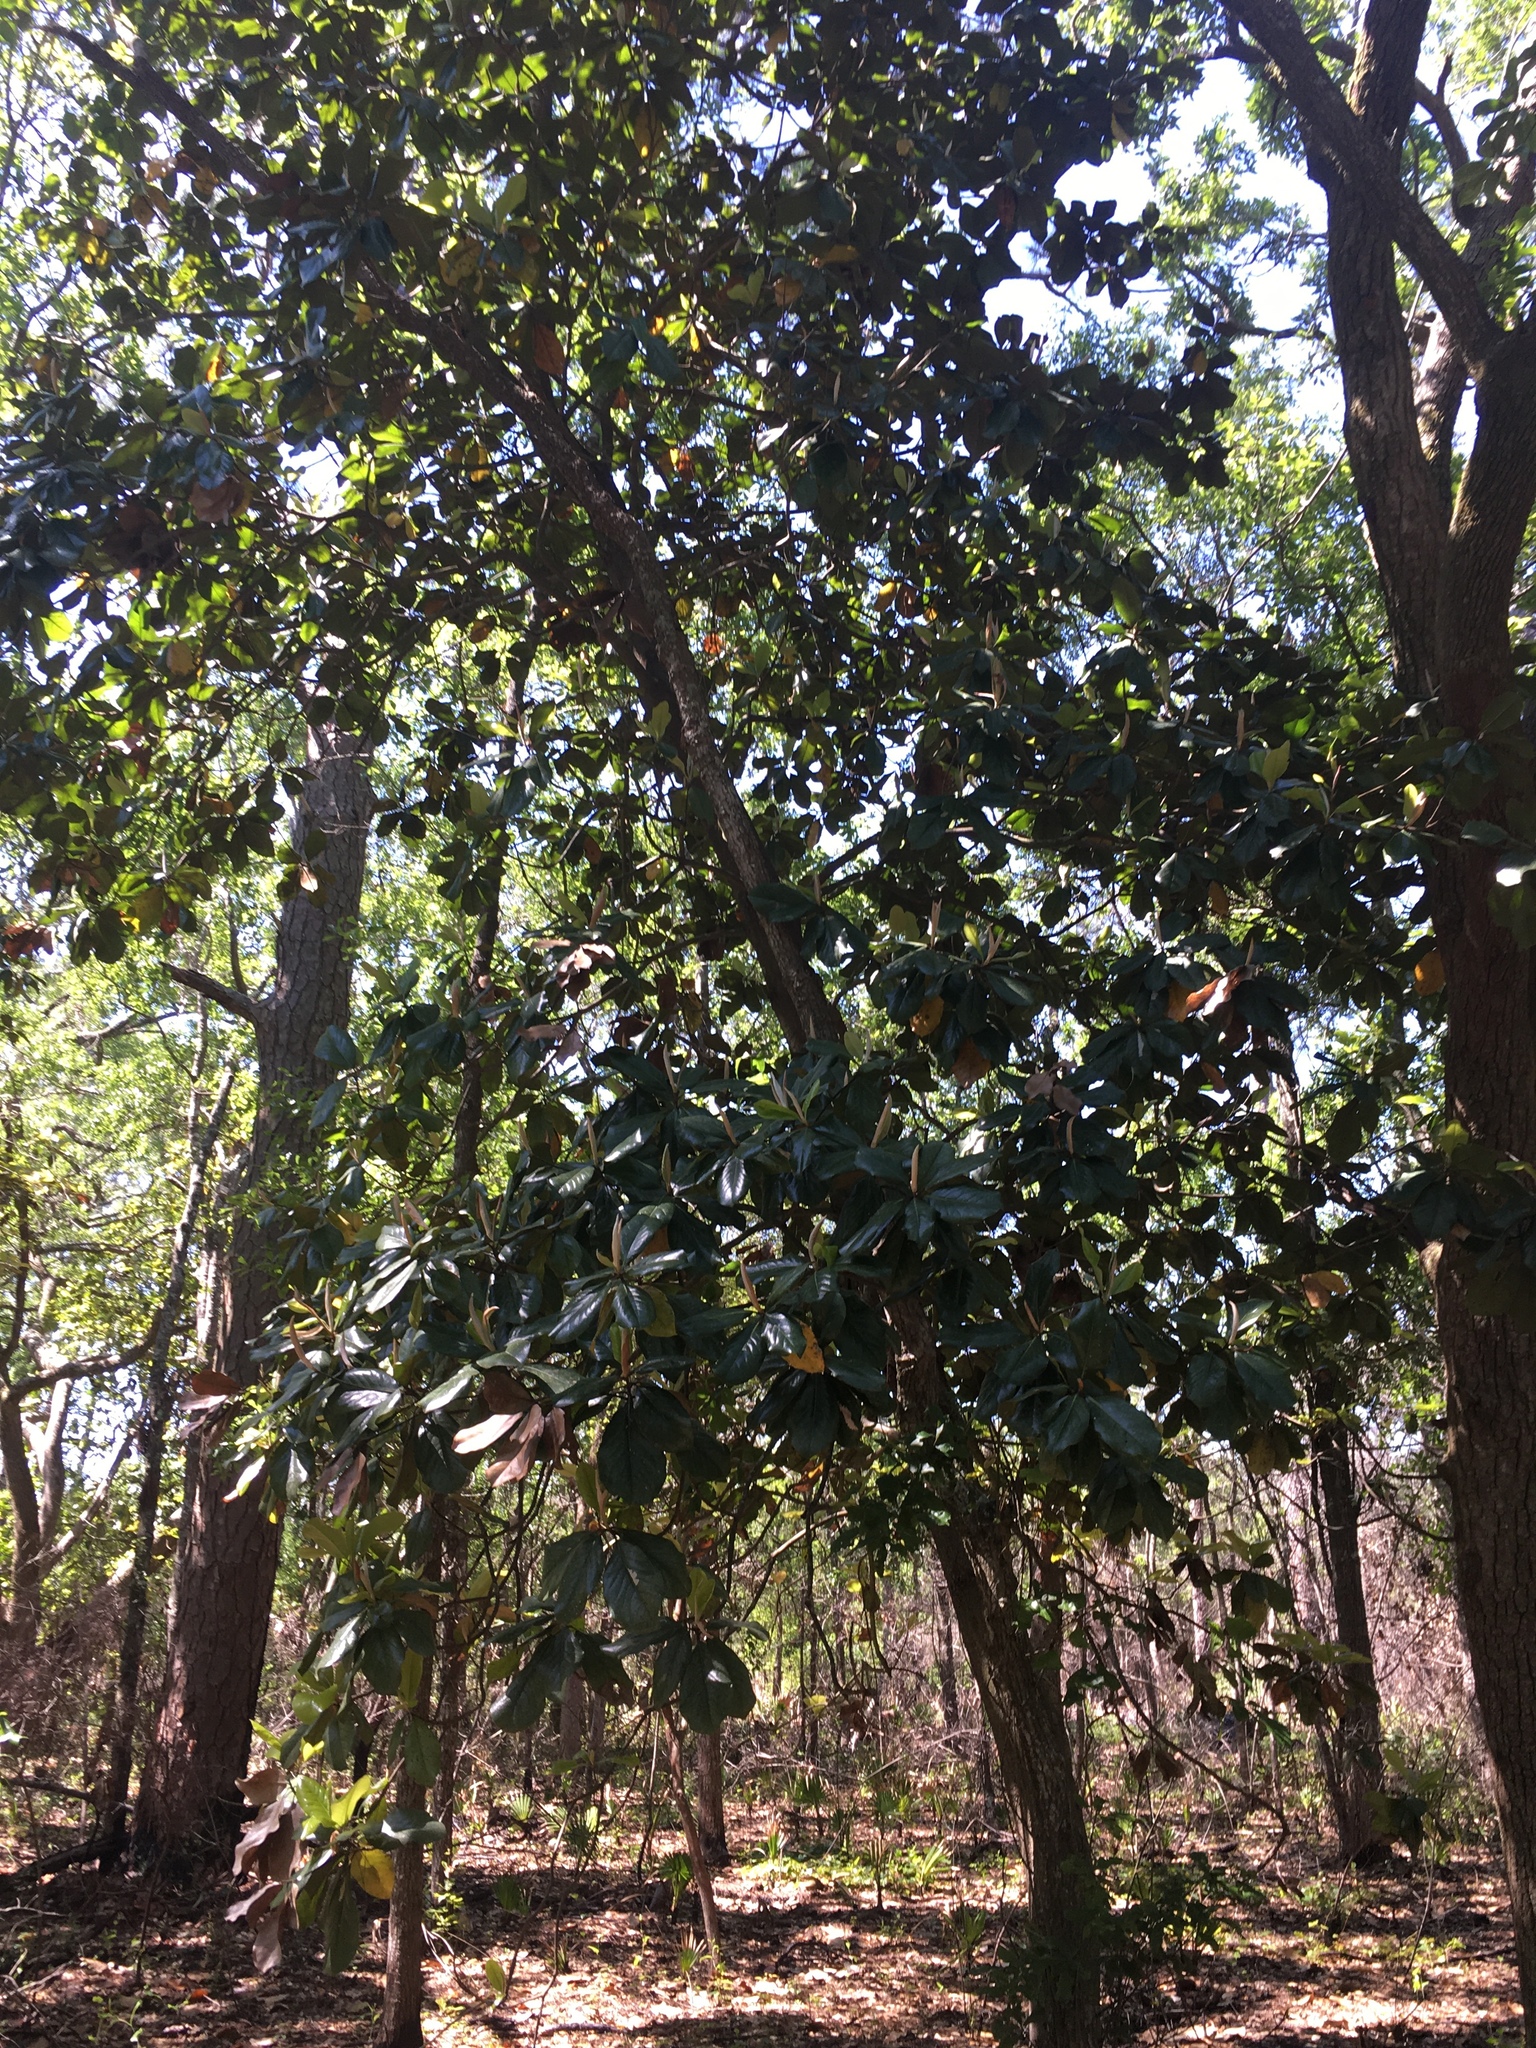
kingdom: Plantae
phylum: Tracheophyta
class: Magnoliopsida
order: Magnoliales
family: Magnoliaceae
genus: Magnolia
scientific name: Magnolia grandiflora
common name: Southern magnolia
